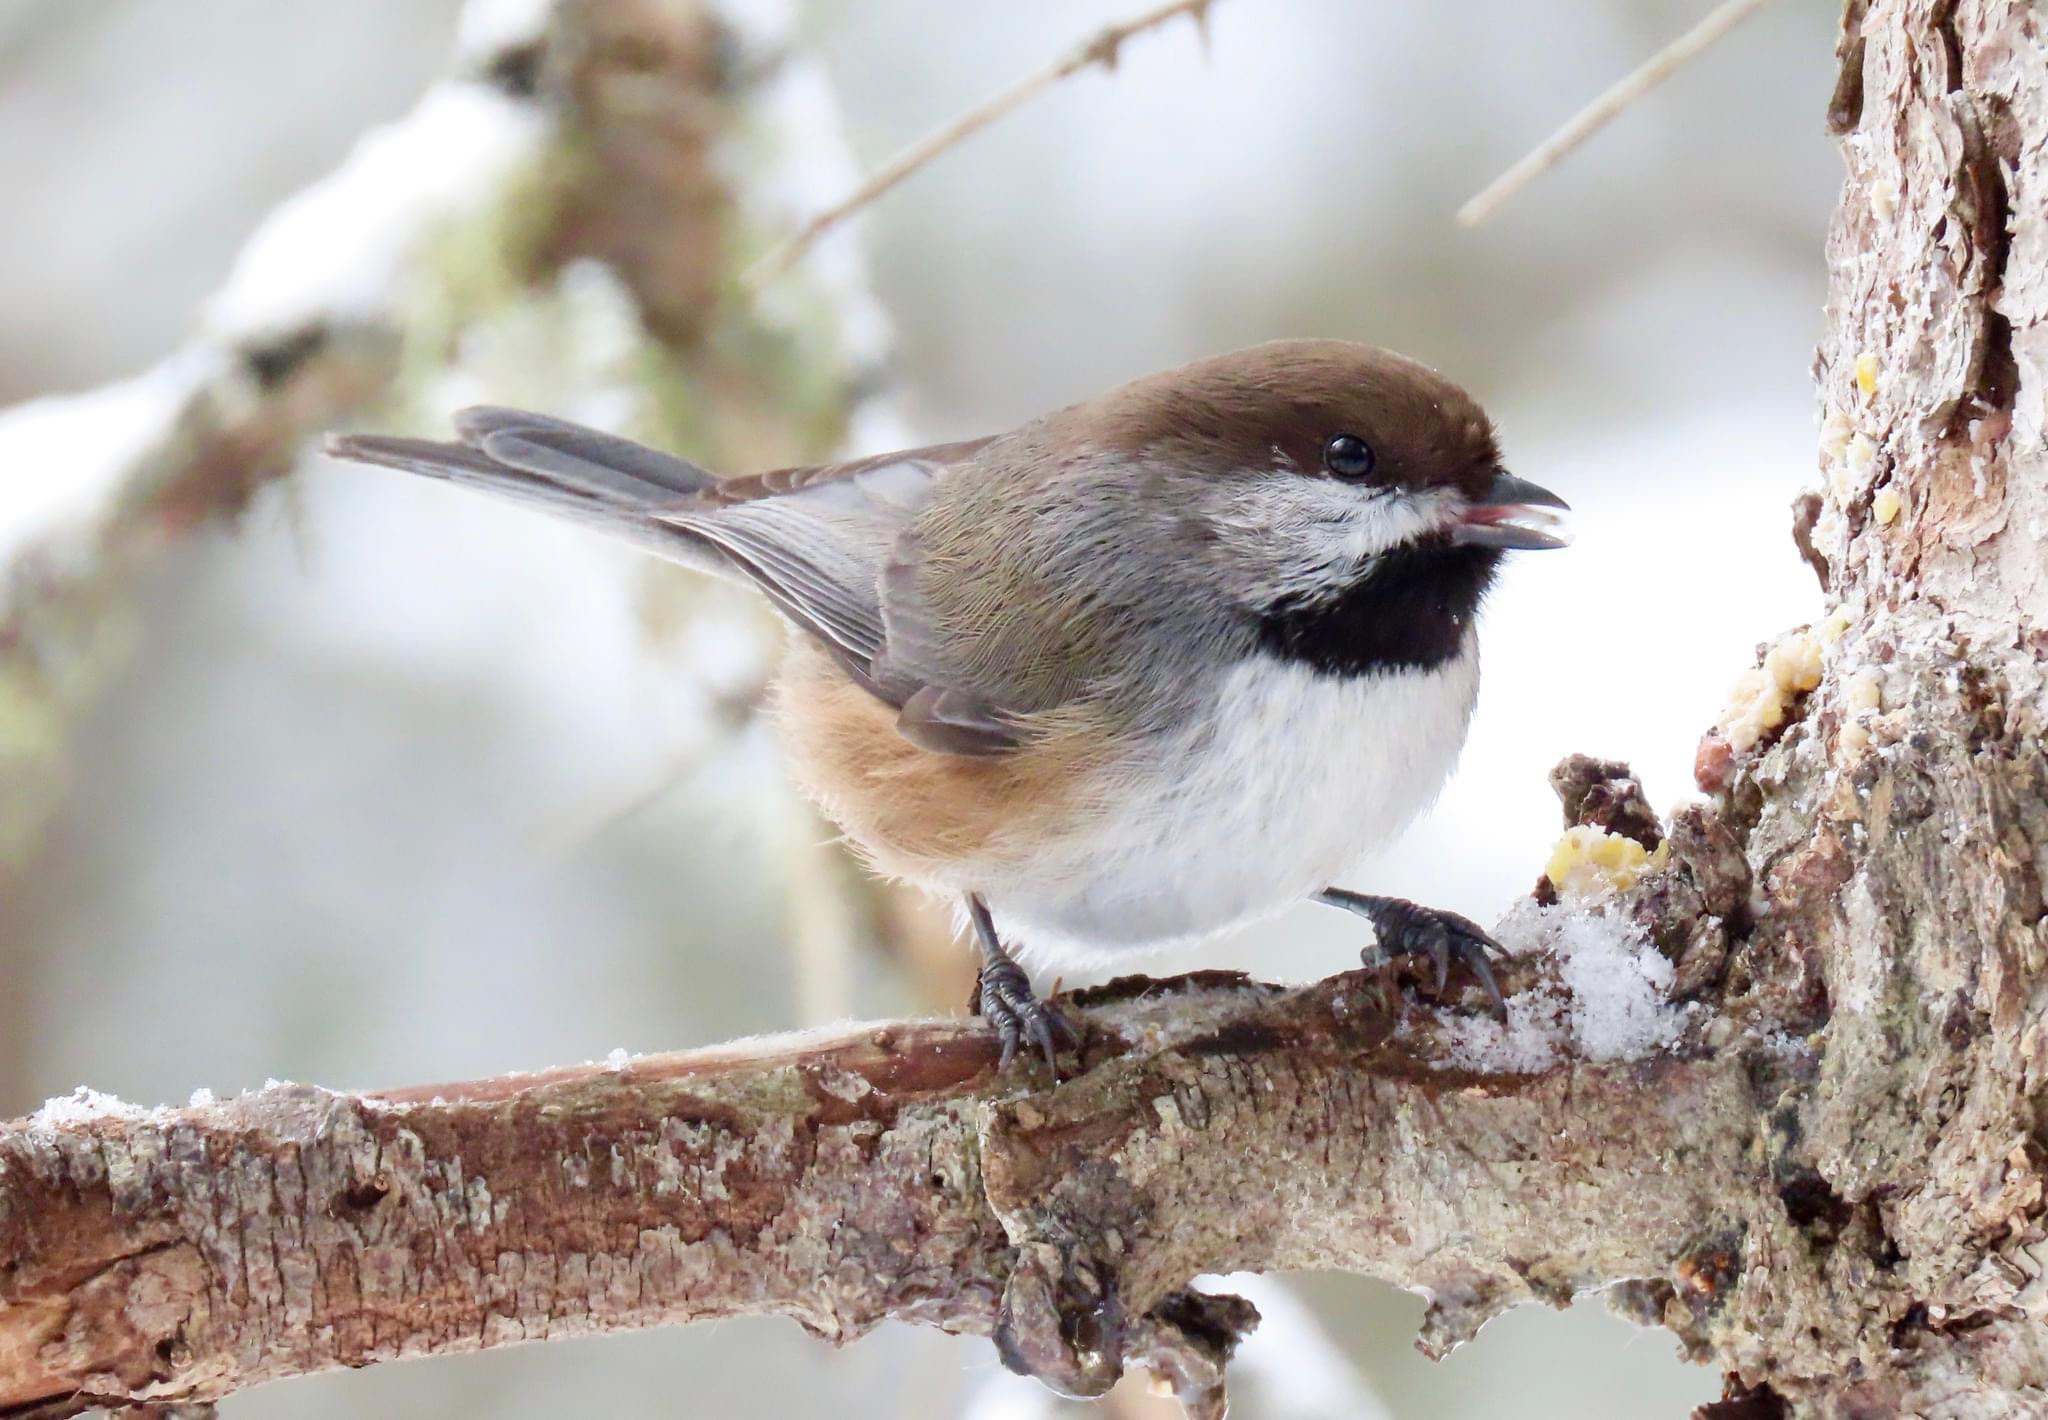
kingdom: Animalia
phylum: Chordata
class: Aves
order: Passeriformes
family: Paridae
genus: Poecile
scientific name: Poecile hudsonicus
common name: Boreal chickadee
